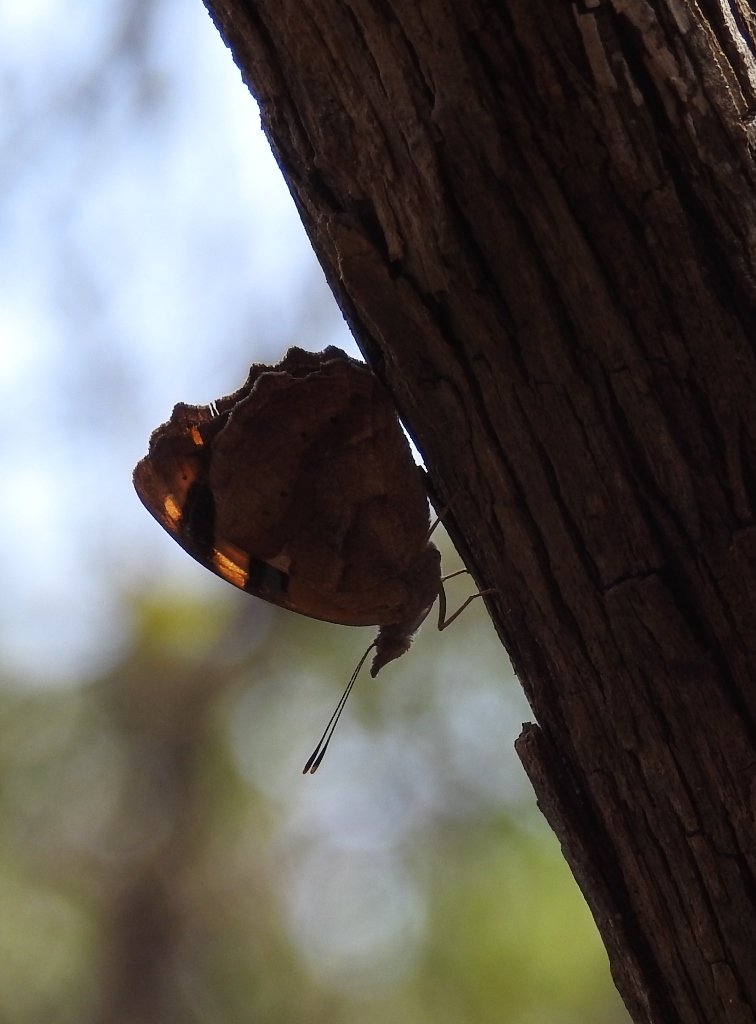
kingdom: Animalia
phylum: Arthropoda
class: Insecta
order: Lepidoptera
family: Nymphalidae
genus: Epiphile
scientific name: Epiphile adrasta
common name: Common banner
